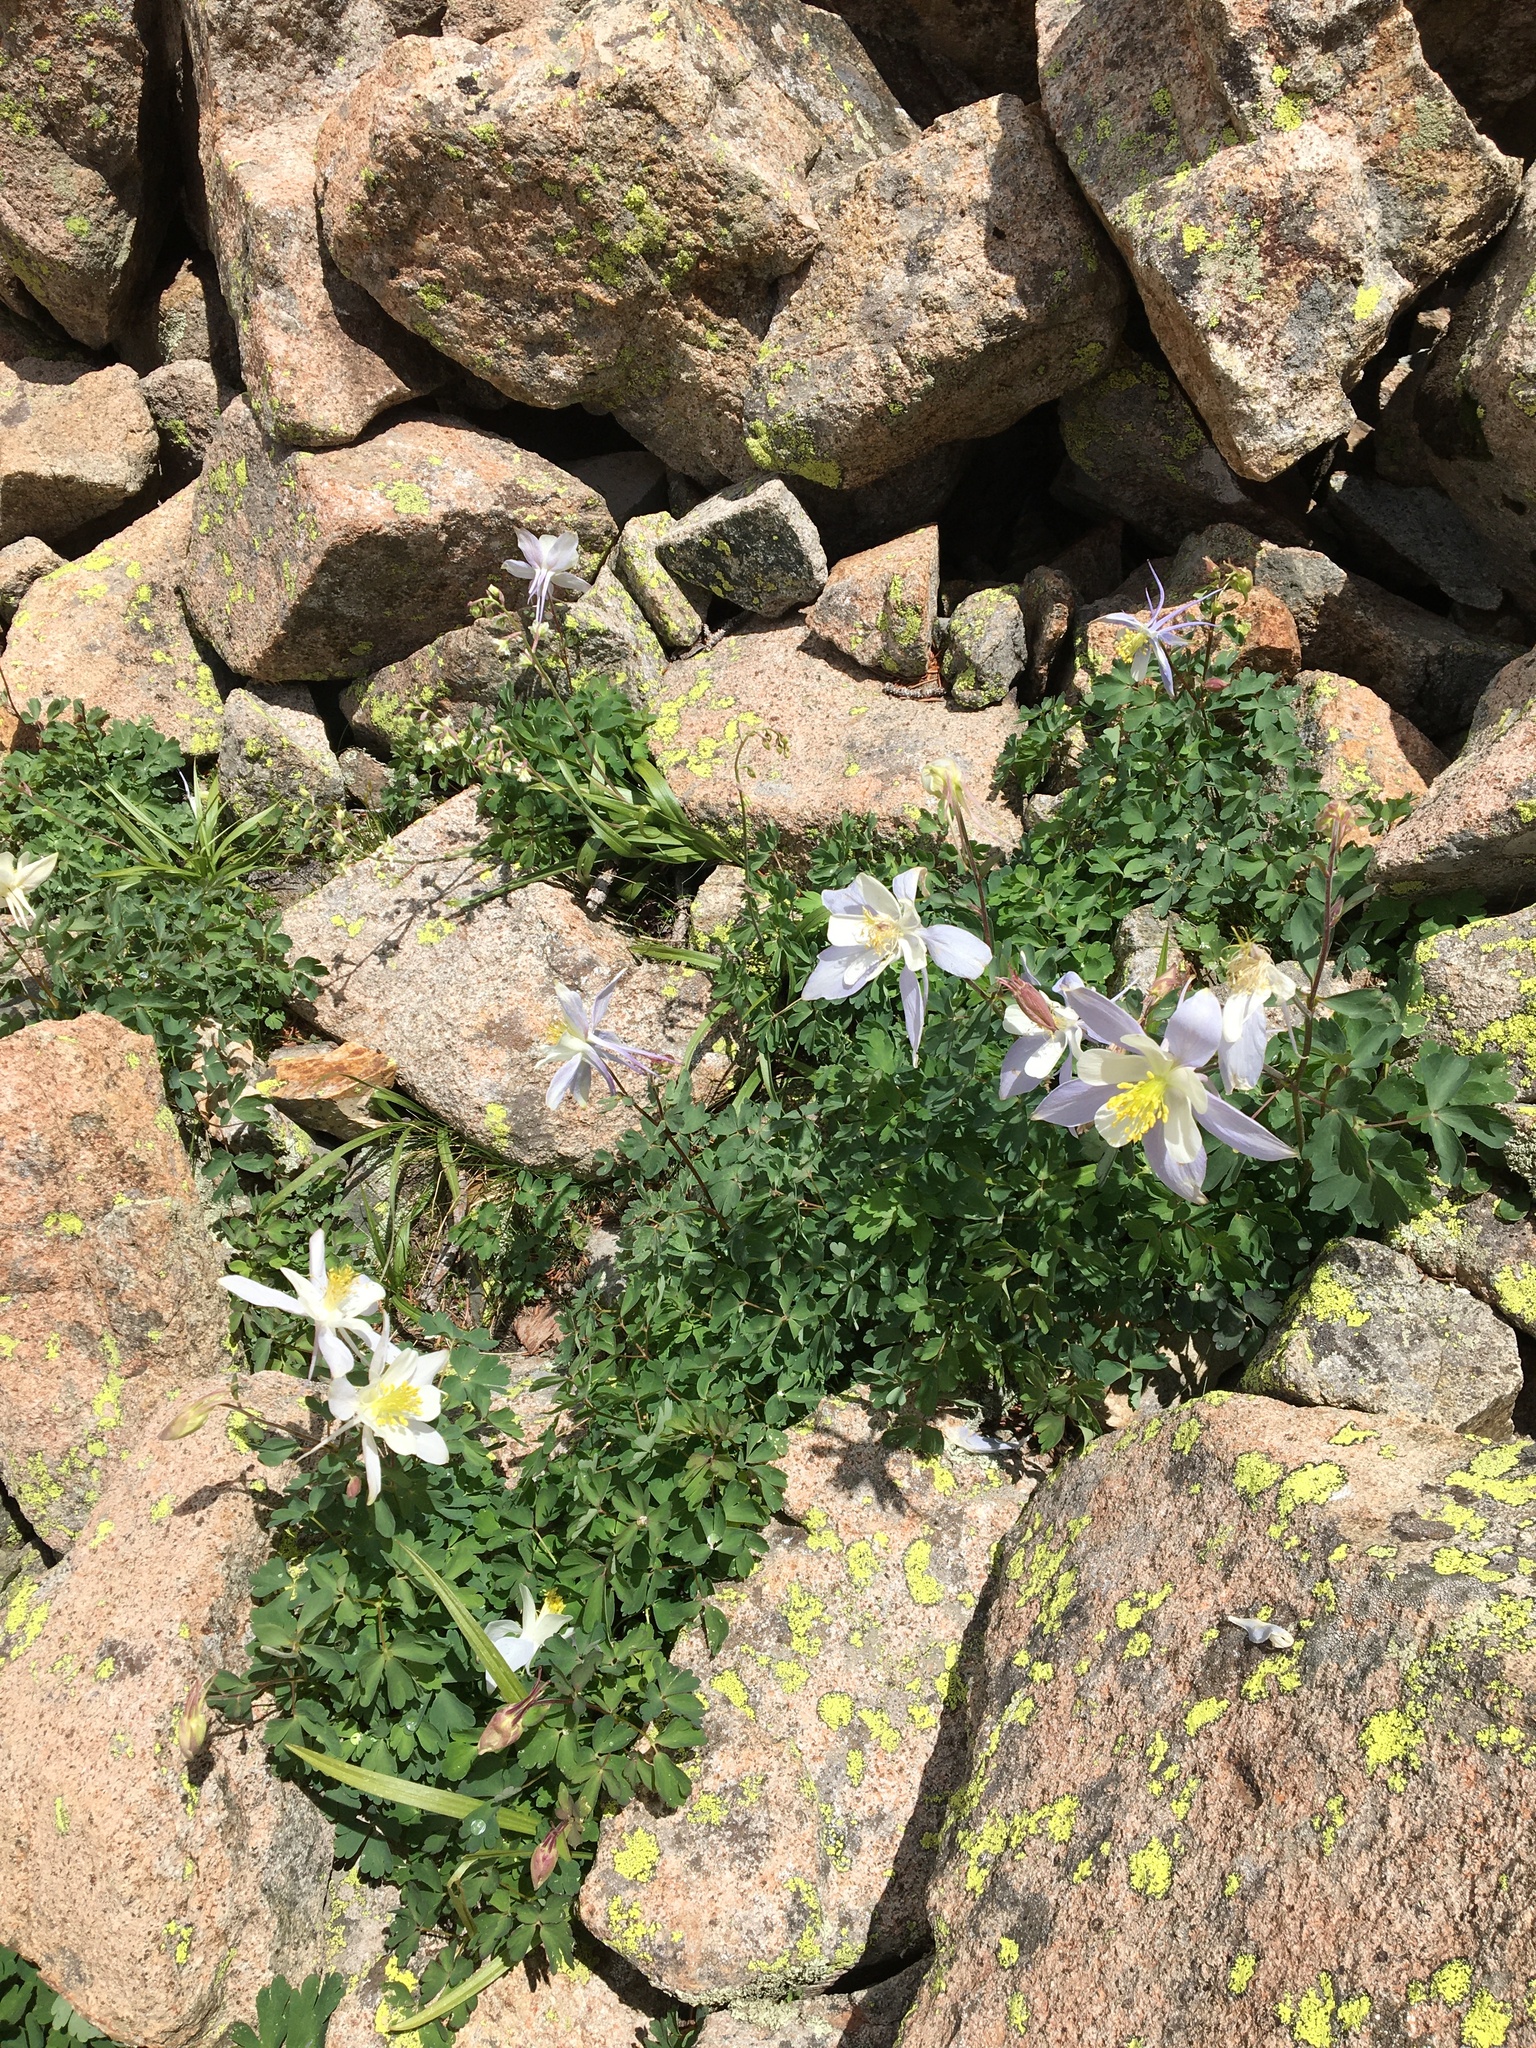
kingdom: Plantae
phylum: Tracheophyta
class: Magnoliopsida
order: Ranunculales
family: Ranunculaceae
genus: Aquilegia
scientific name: Aquilegia coerulea
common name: Rocky mountain columbine
